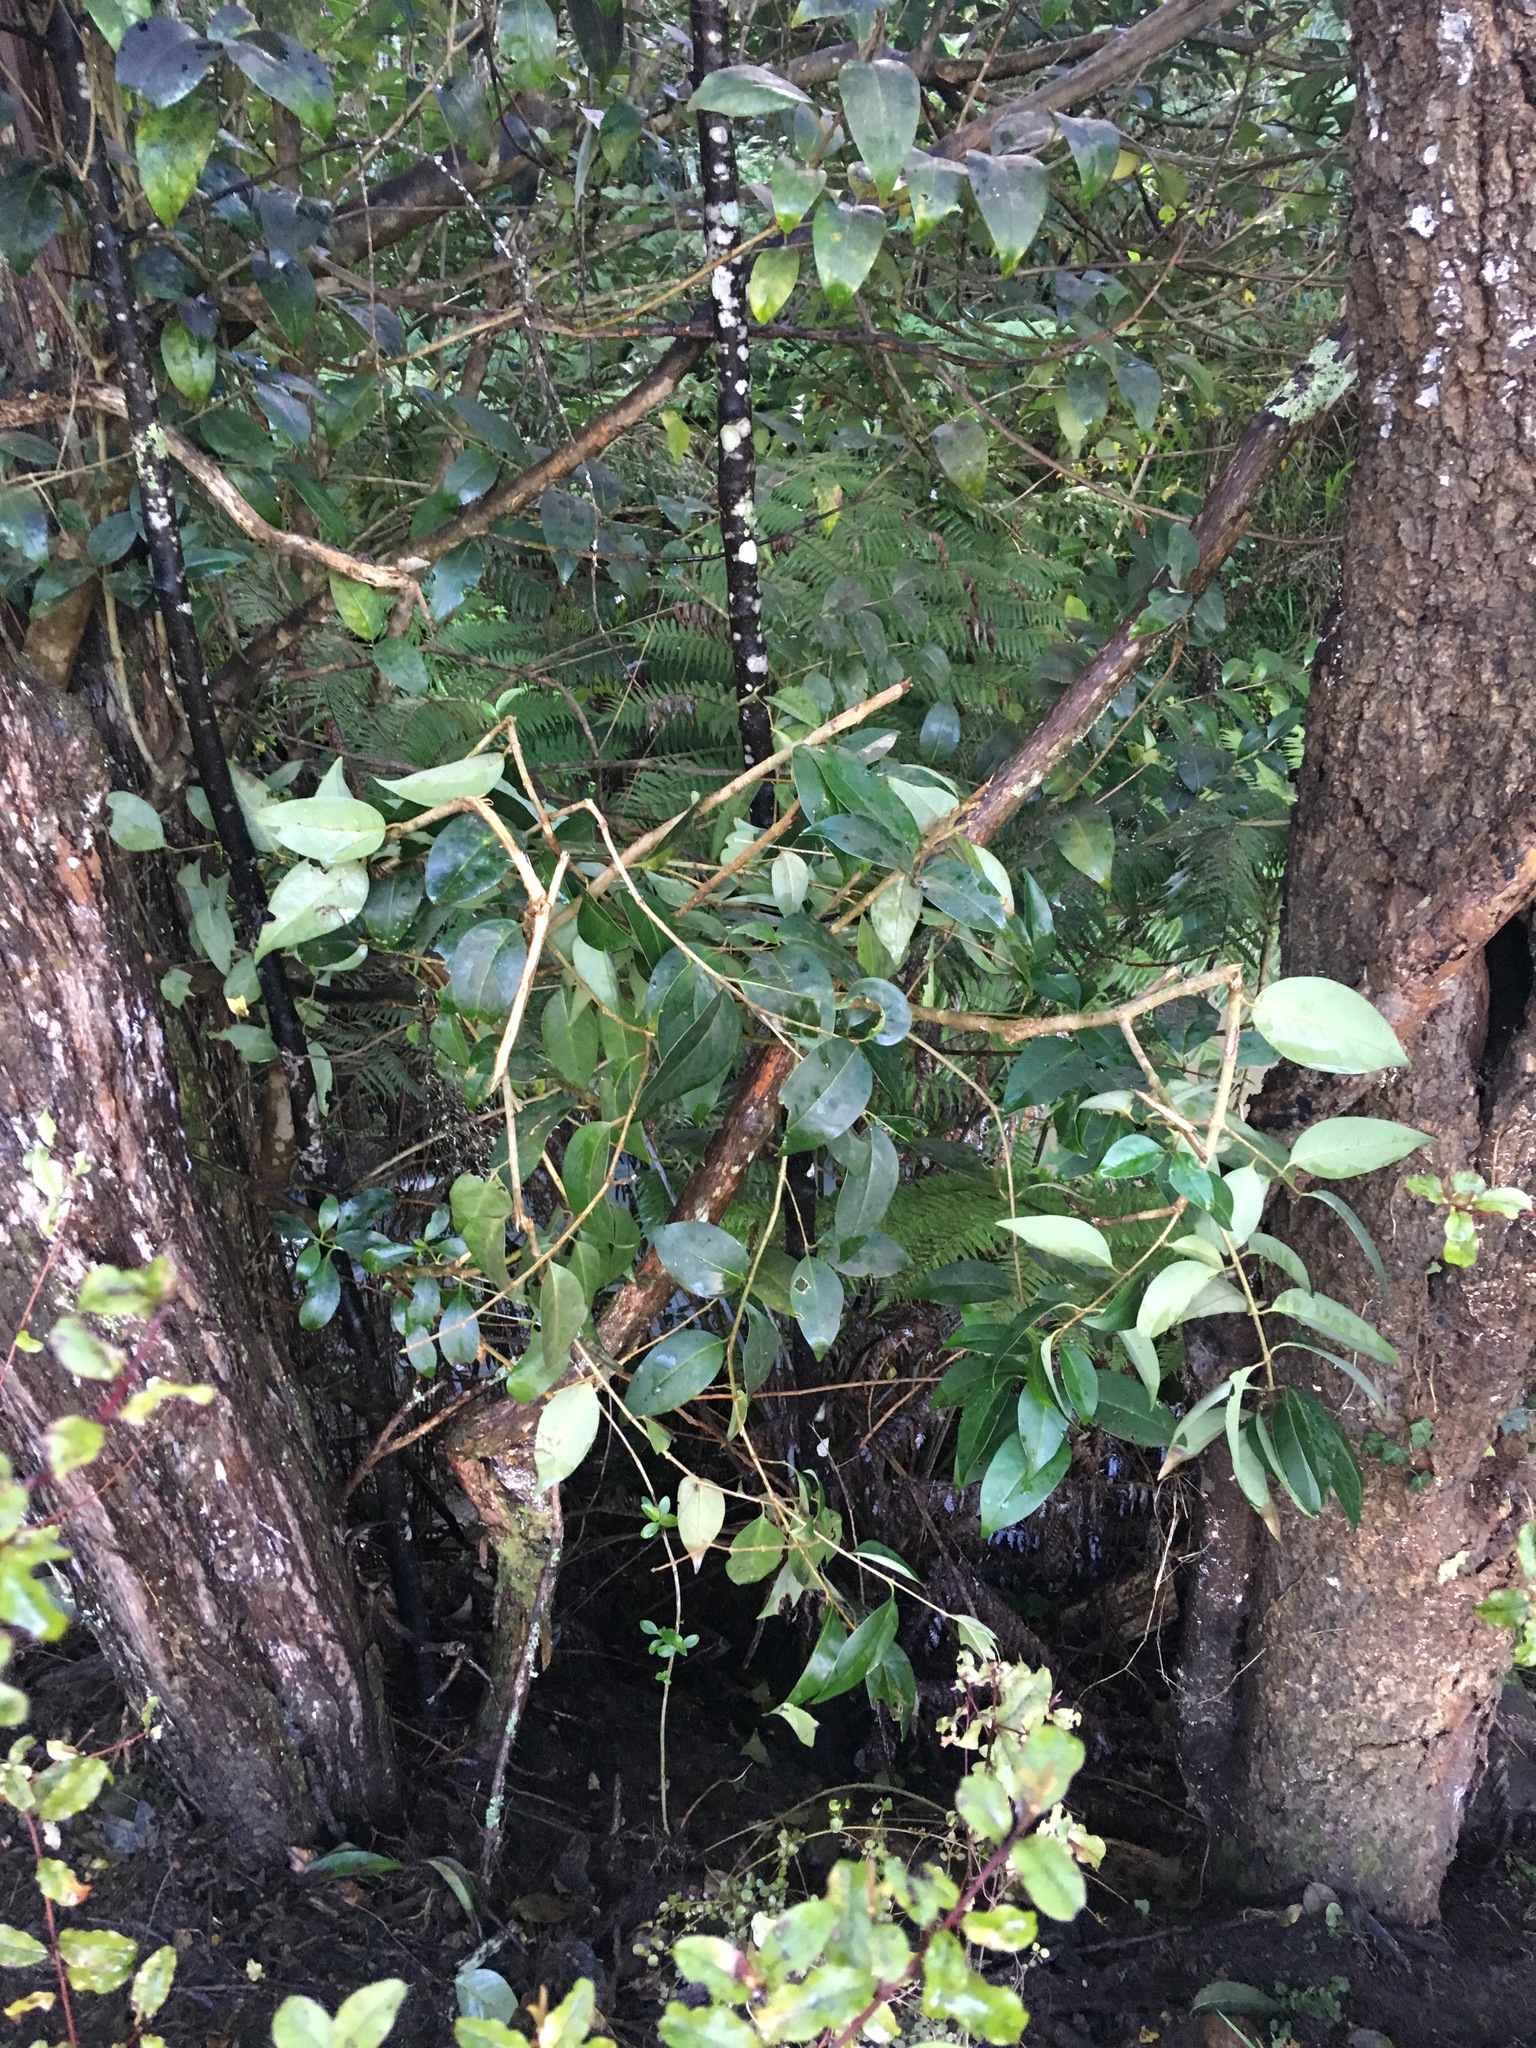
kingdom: Plantae
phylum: Tracheophyta
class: Magnoliopsida
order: Lamiales
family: Oleaceae
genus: Ligustrum
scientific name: Ligustrum lucidum
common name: Glossy privet
